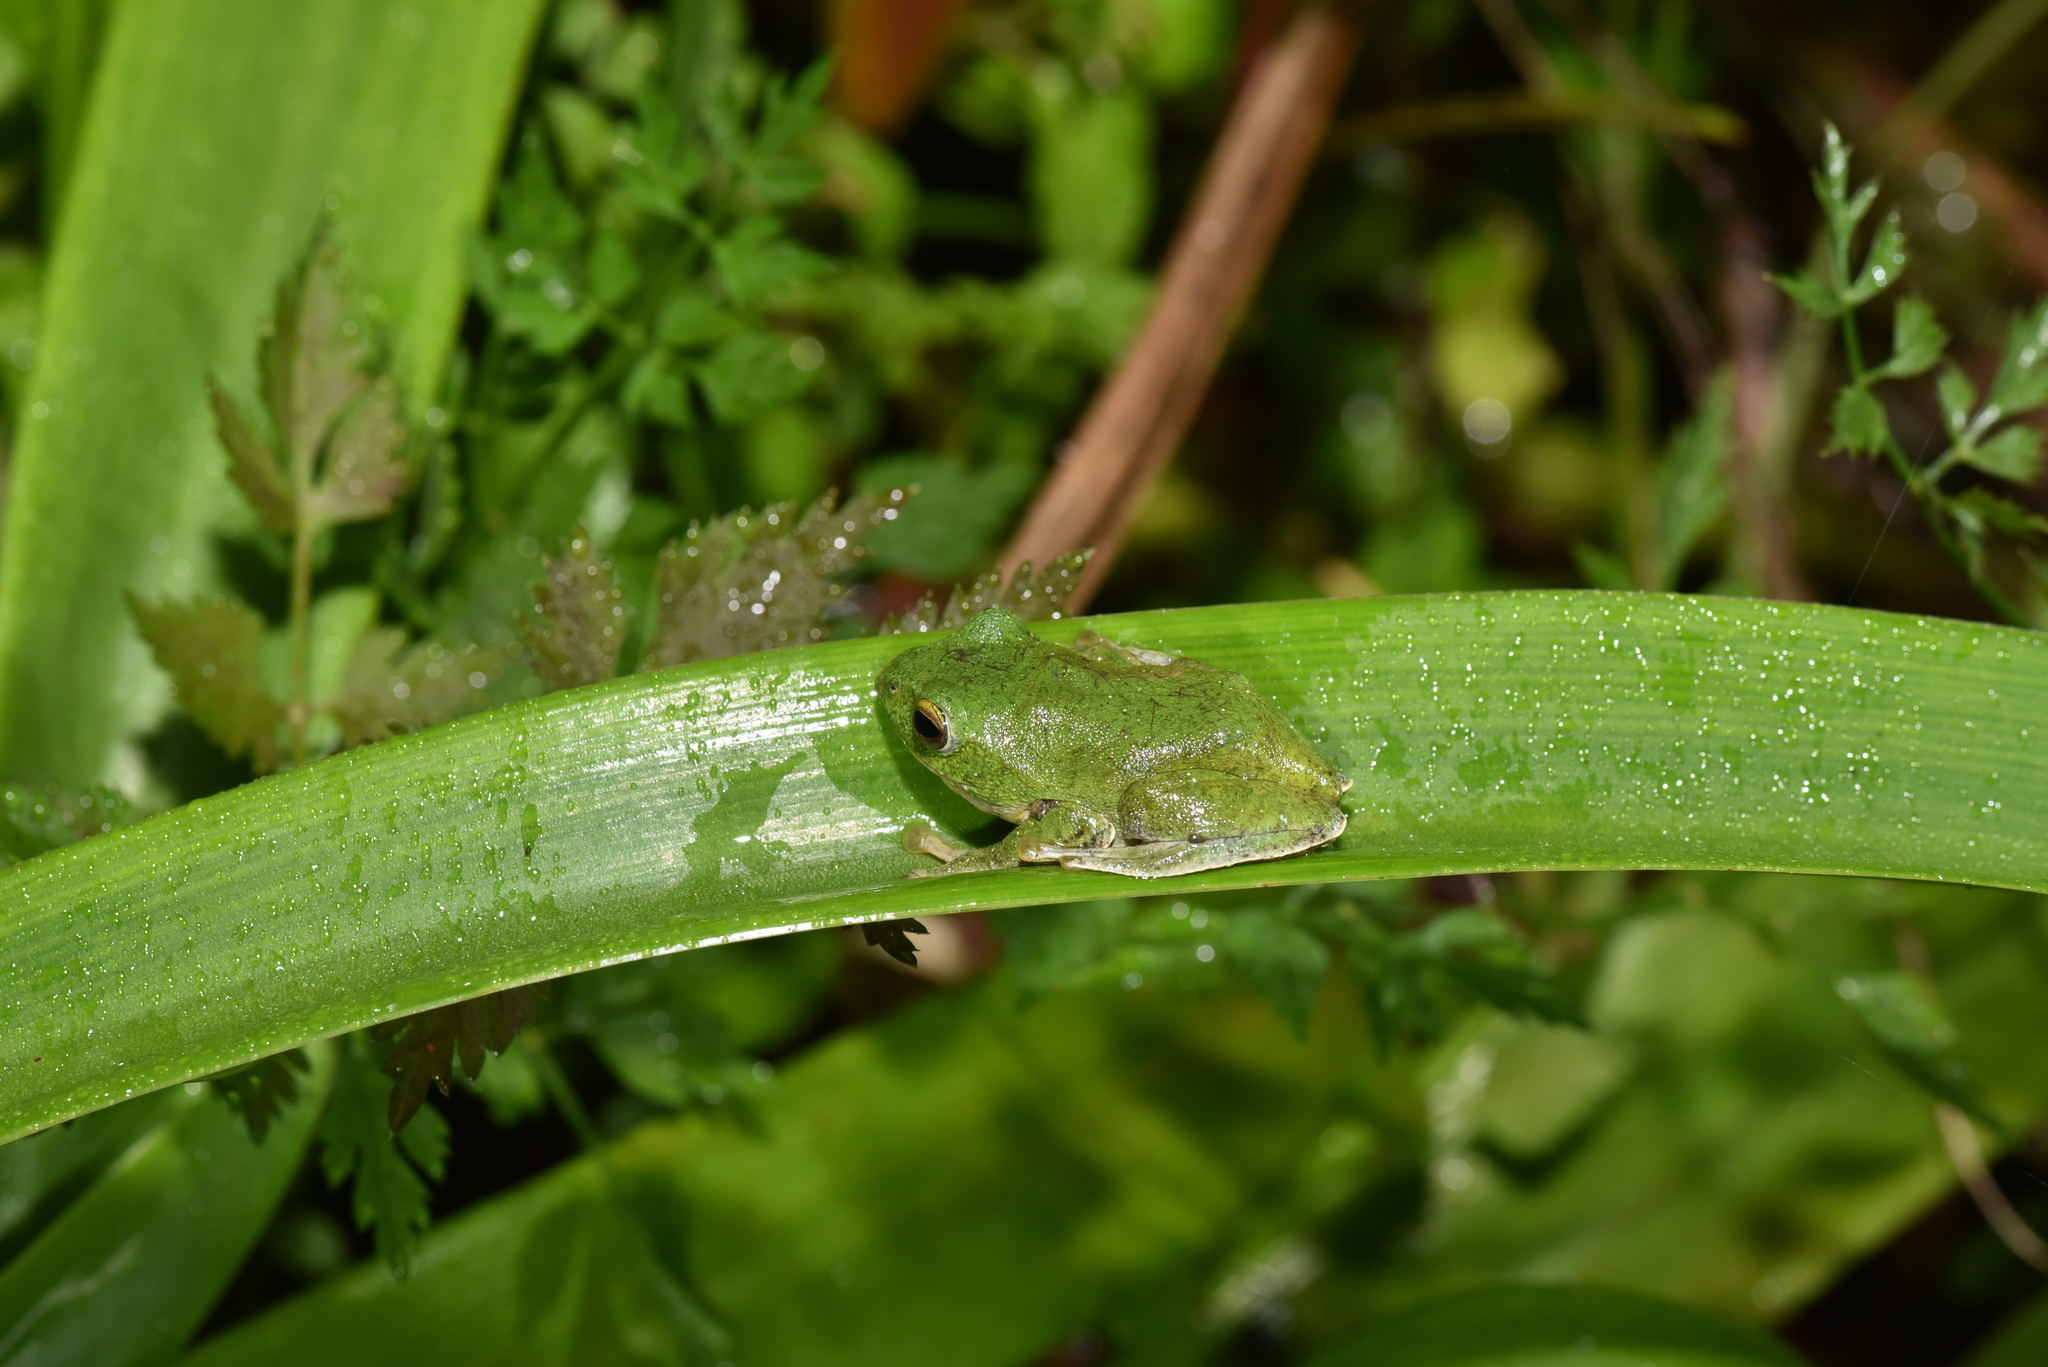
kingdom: Animalia
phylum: Chordata
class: Amphibia
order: Anura
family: Rhacophoridae
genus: Zhangixalus
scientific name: Zhangixalus taipeianus
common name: Taipei flying frog
